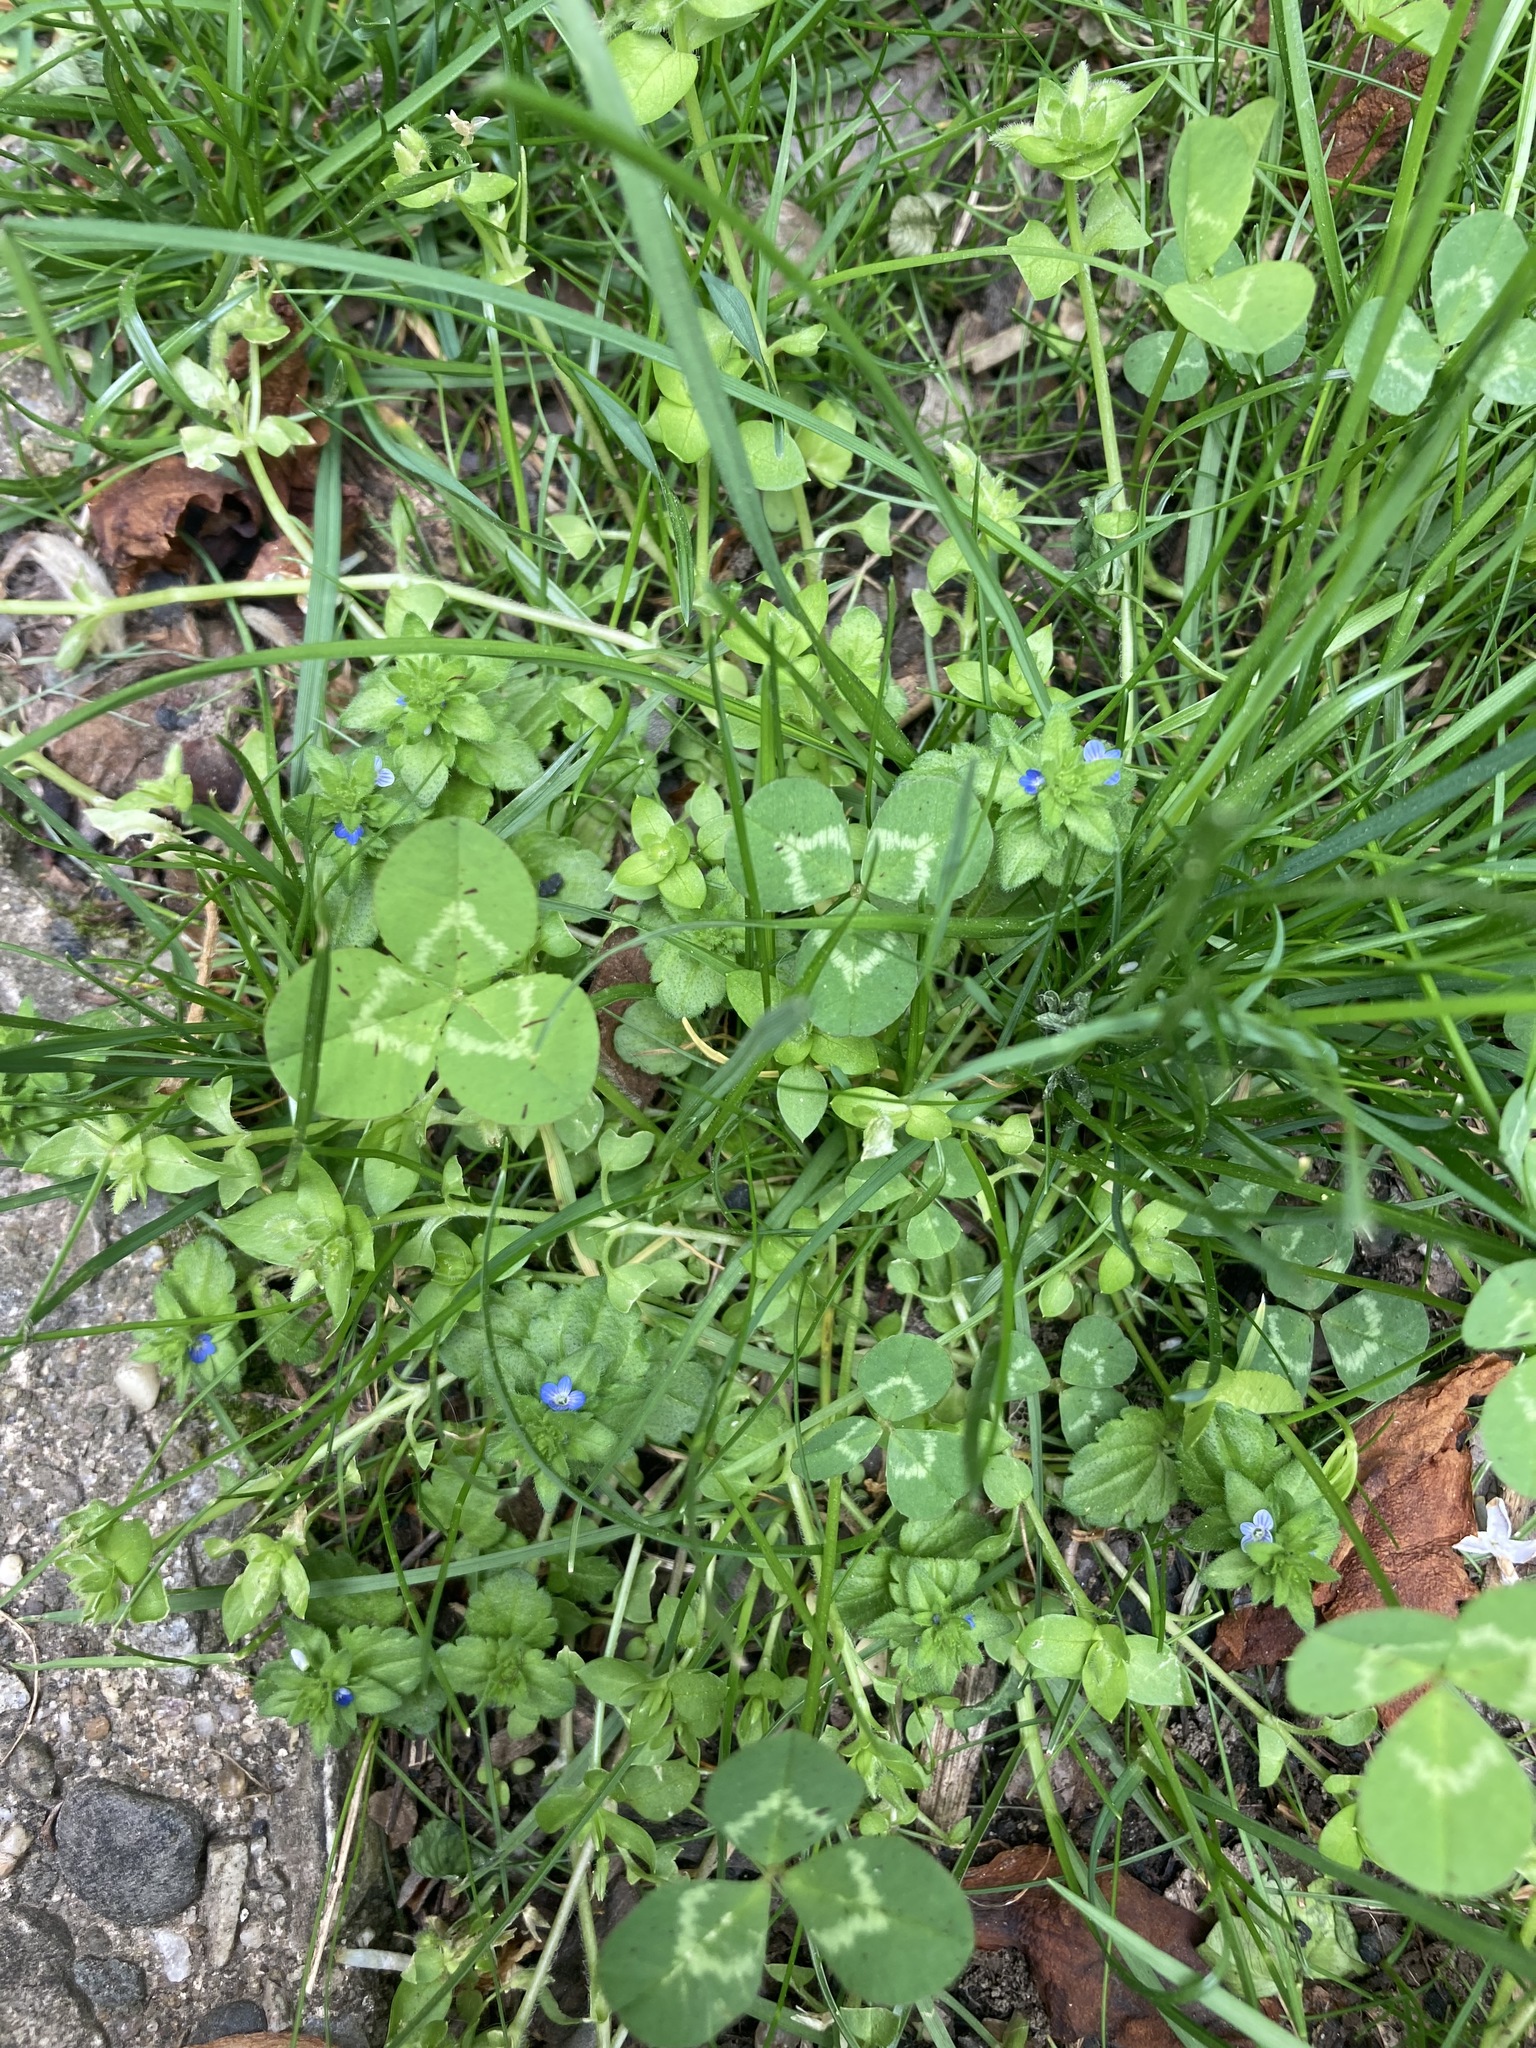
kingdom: Plantae
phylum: Tracheophyta
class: Magnoliopsida
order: Lamiales
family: Plantaginaceae
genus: Veronica
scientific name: Veronica arvensis
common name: Corn speedwell
